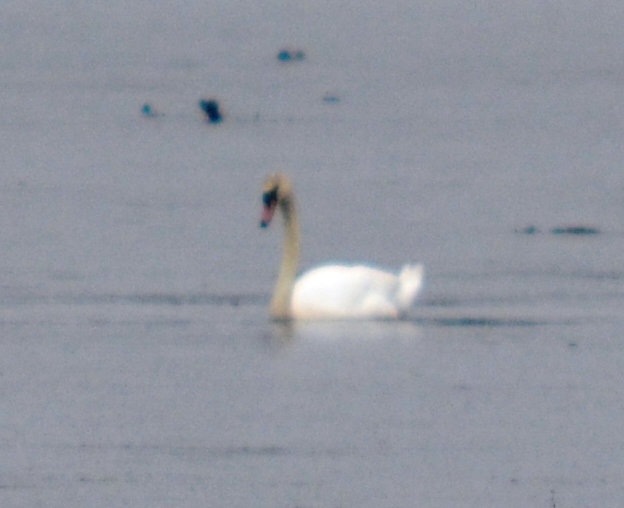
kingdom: Animalia
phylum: Chordata
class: Aves
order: Anseriformes
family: Anatidae
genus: Cygnus
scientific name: Cygnus olor
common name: Mute swan
